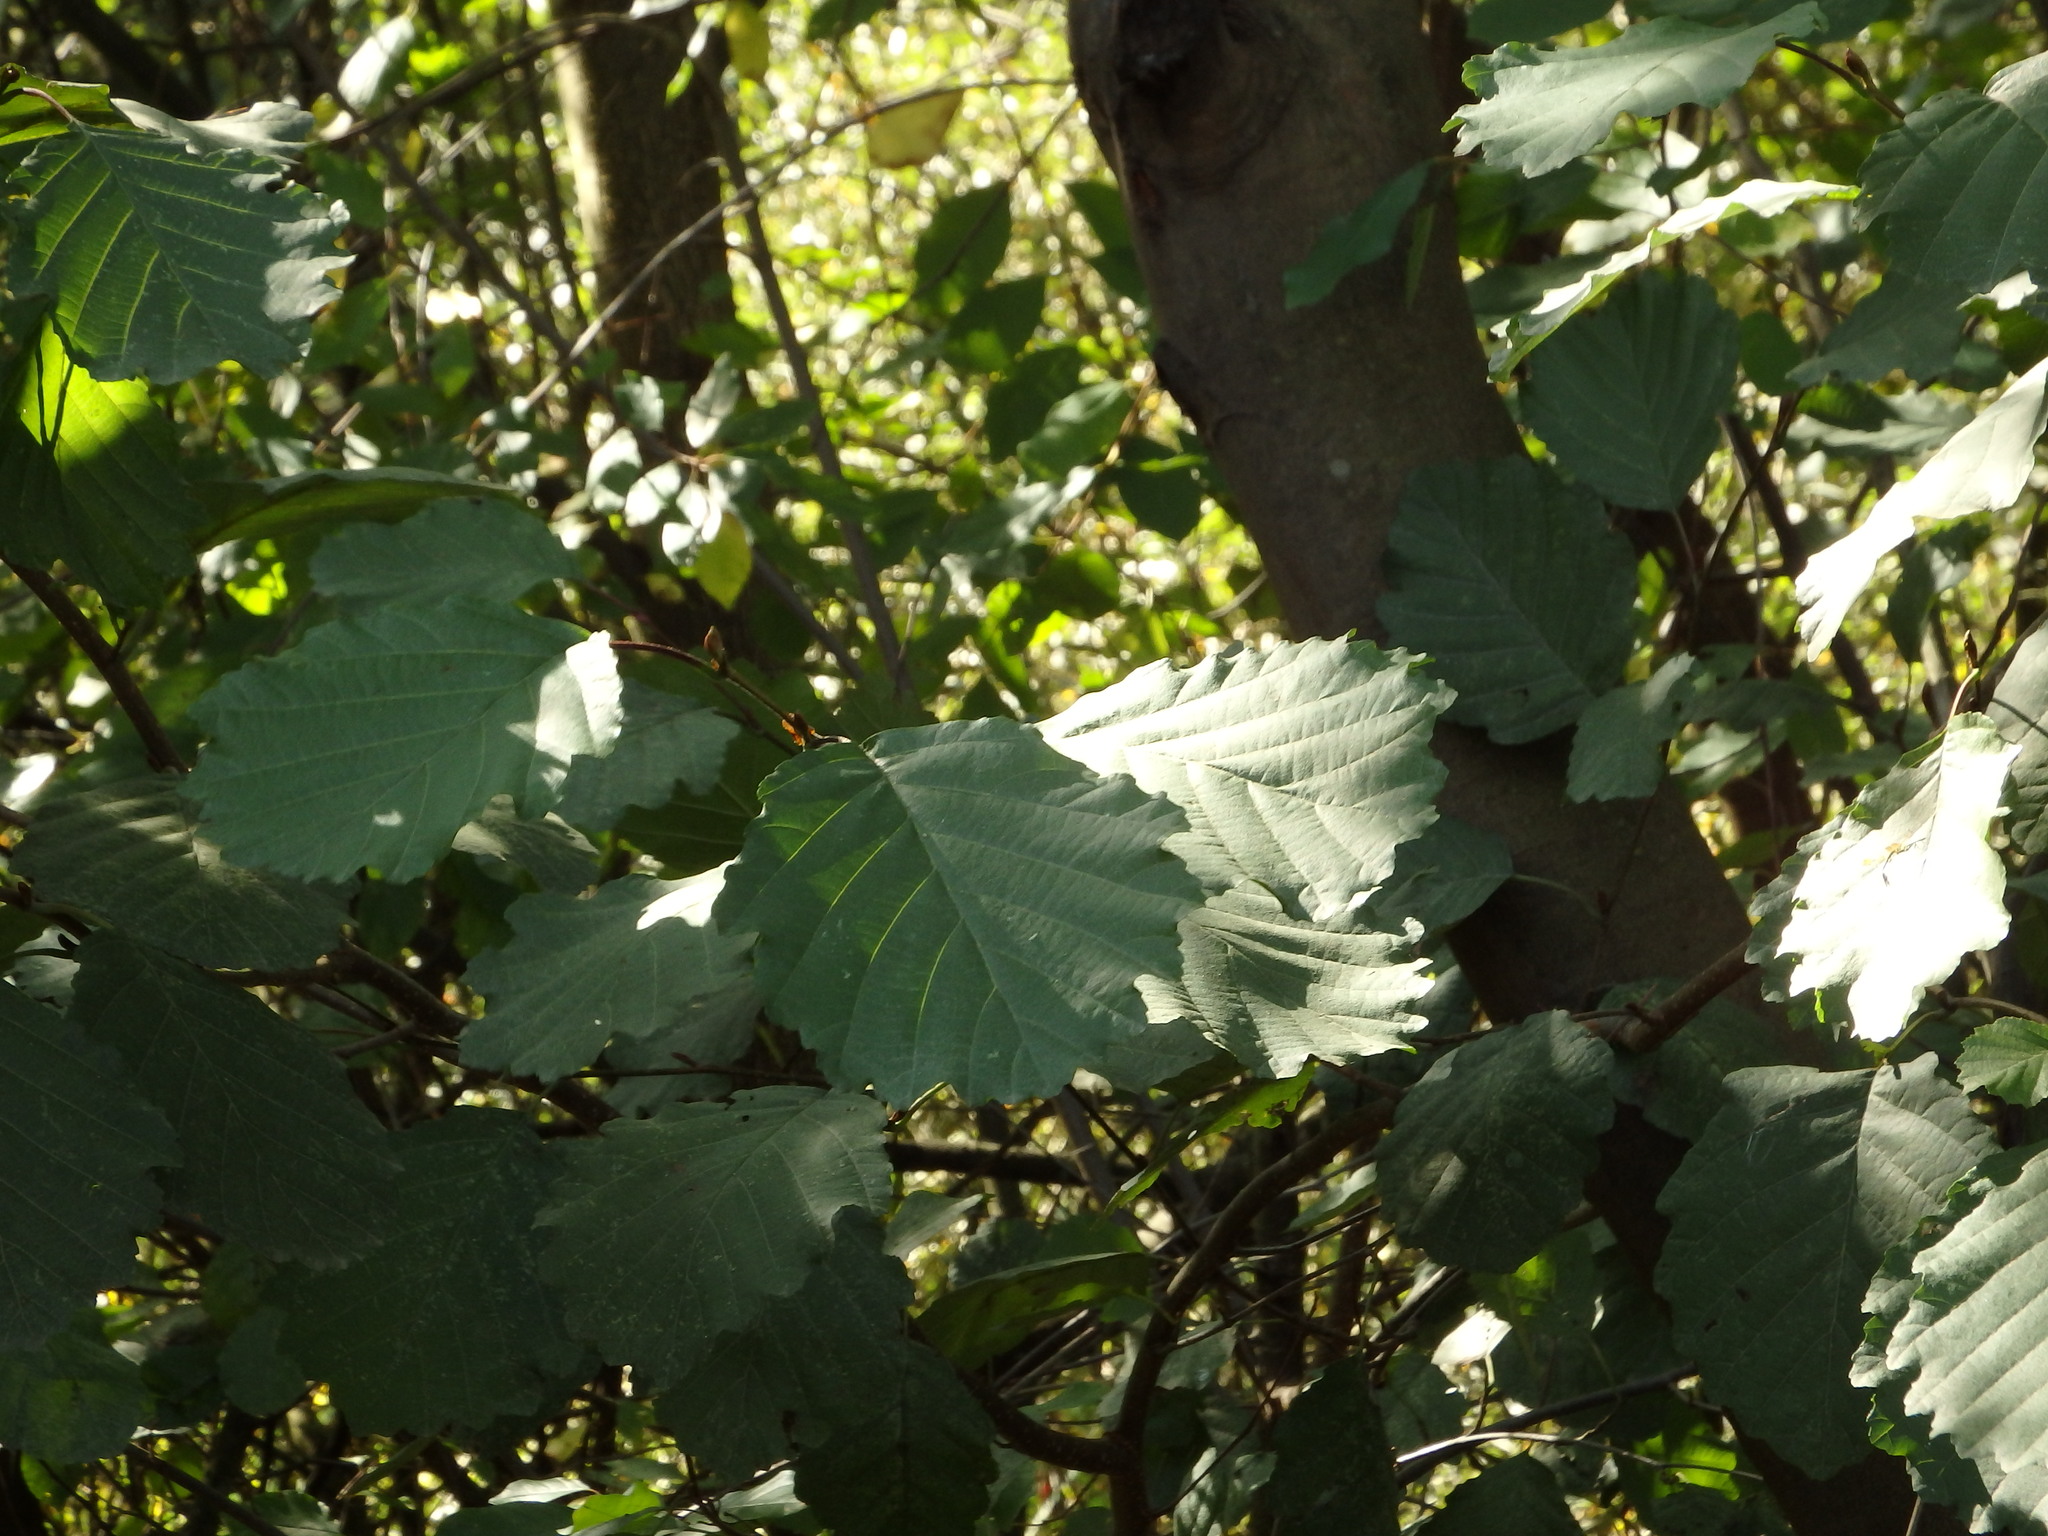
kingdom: Plantae
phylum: Tracheophyta
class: Magnoliopsida
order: Fagales
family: Betulaceae
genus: Alnus
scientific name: Alnus lusitanica
